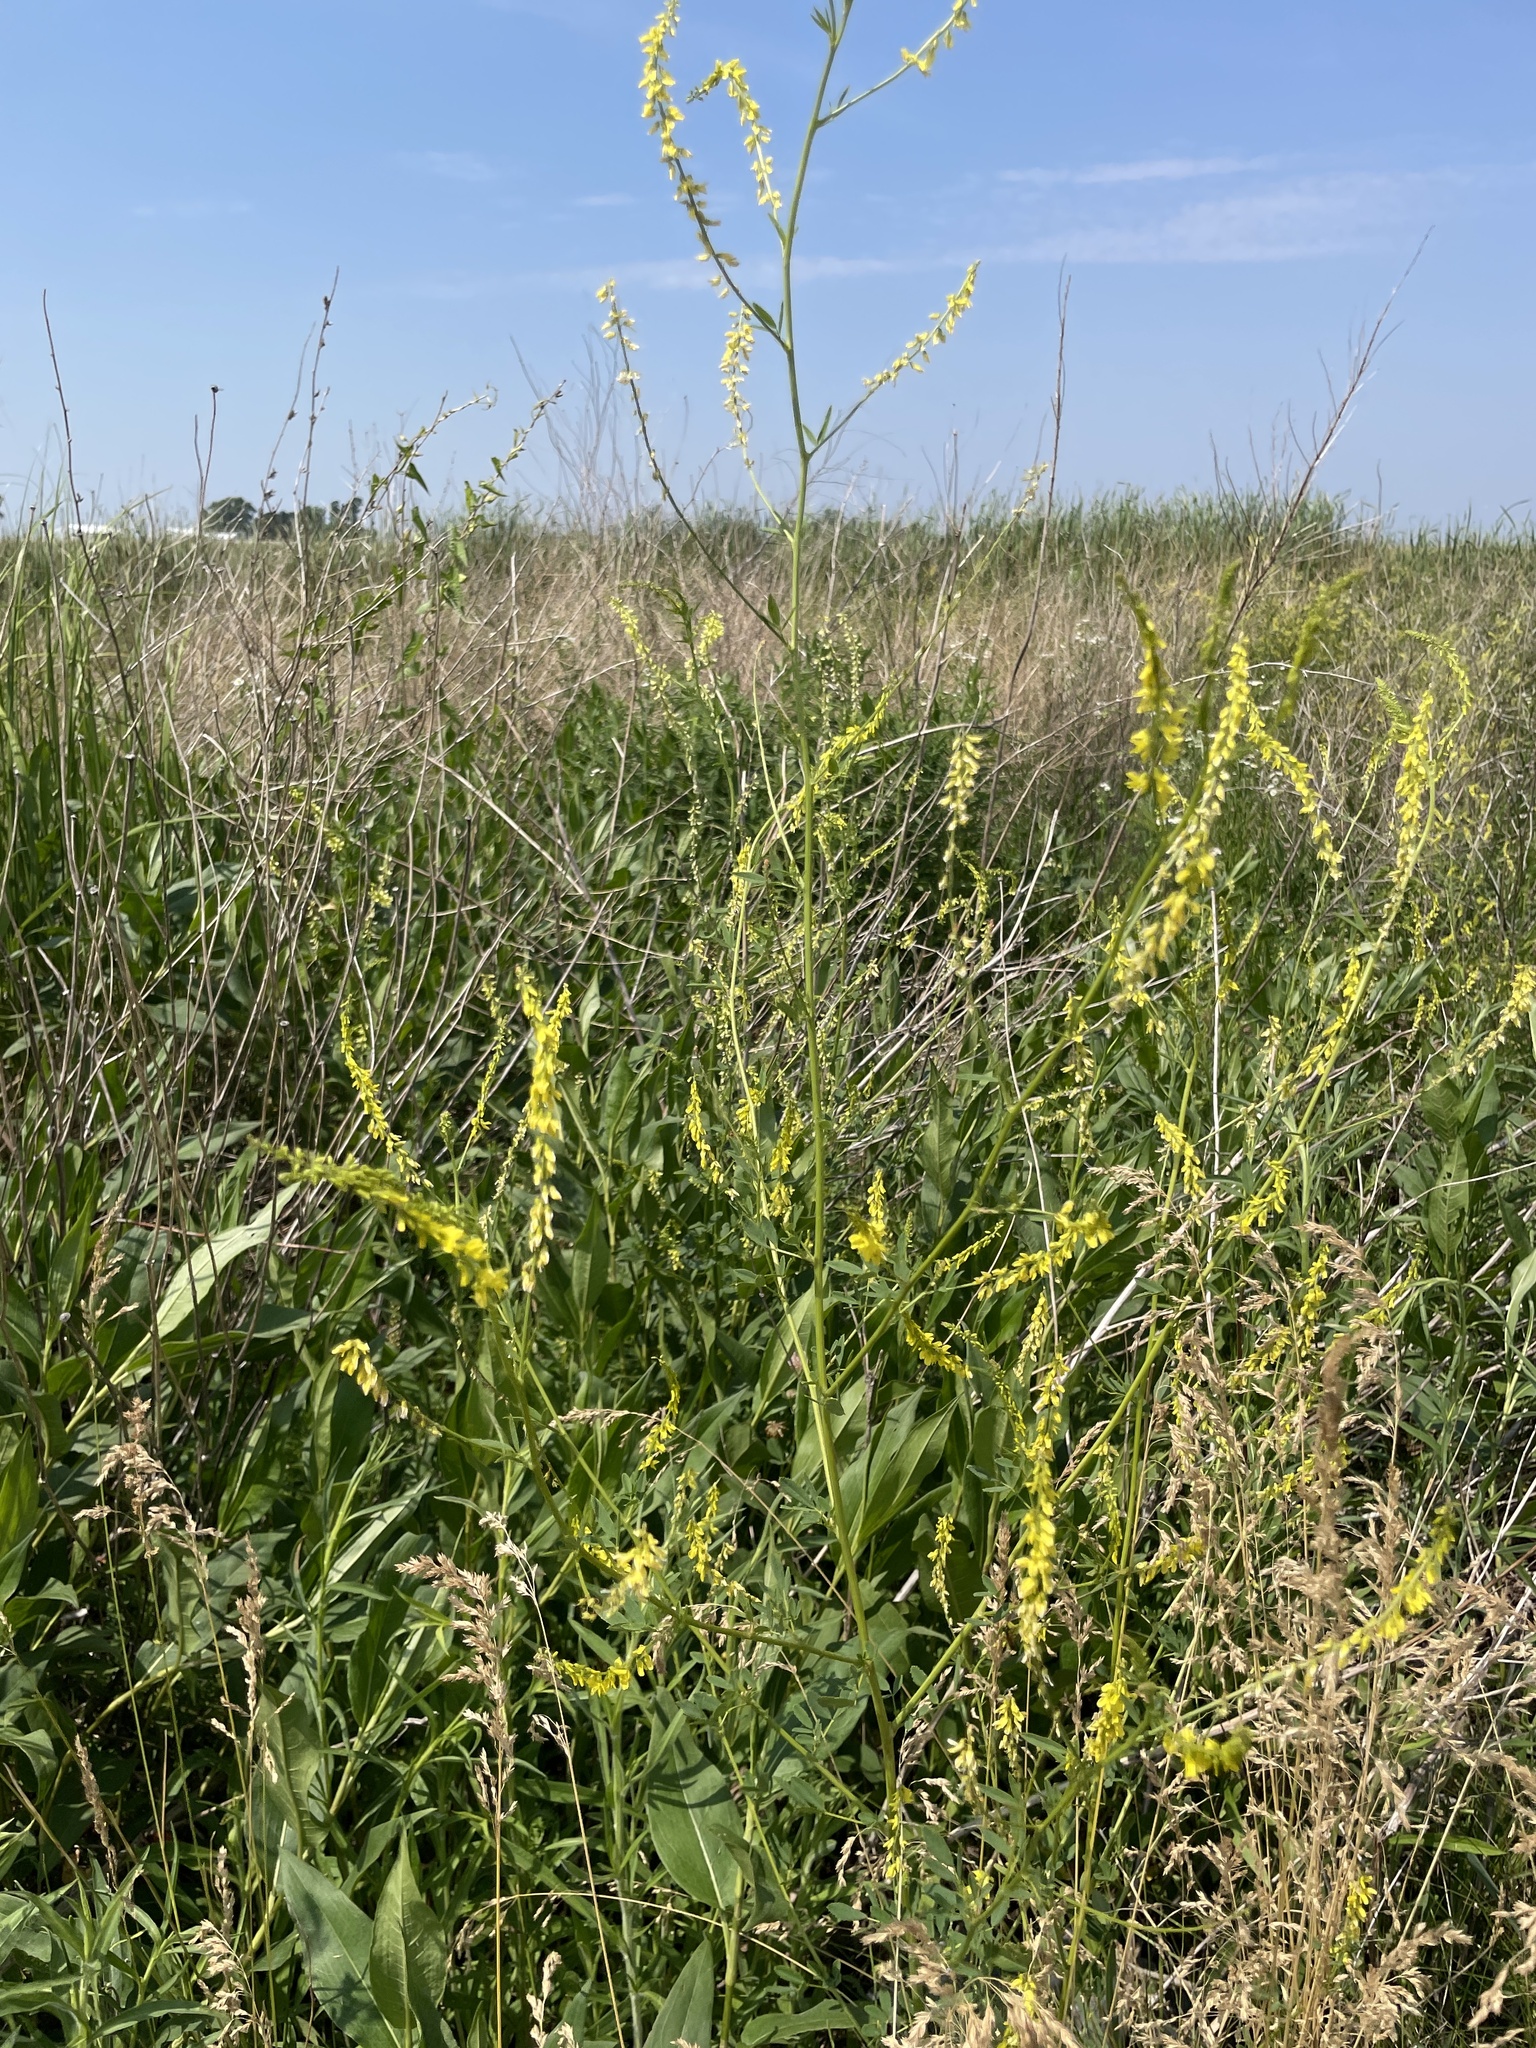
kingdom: Plantae
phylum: Tracheophyta
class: Magnoliopsida
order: Fabales
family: Fabaceae
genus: Melilotus
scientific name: Melilotus officinalis
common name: Sweetclover
